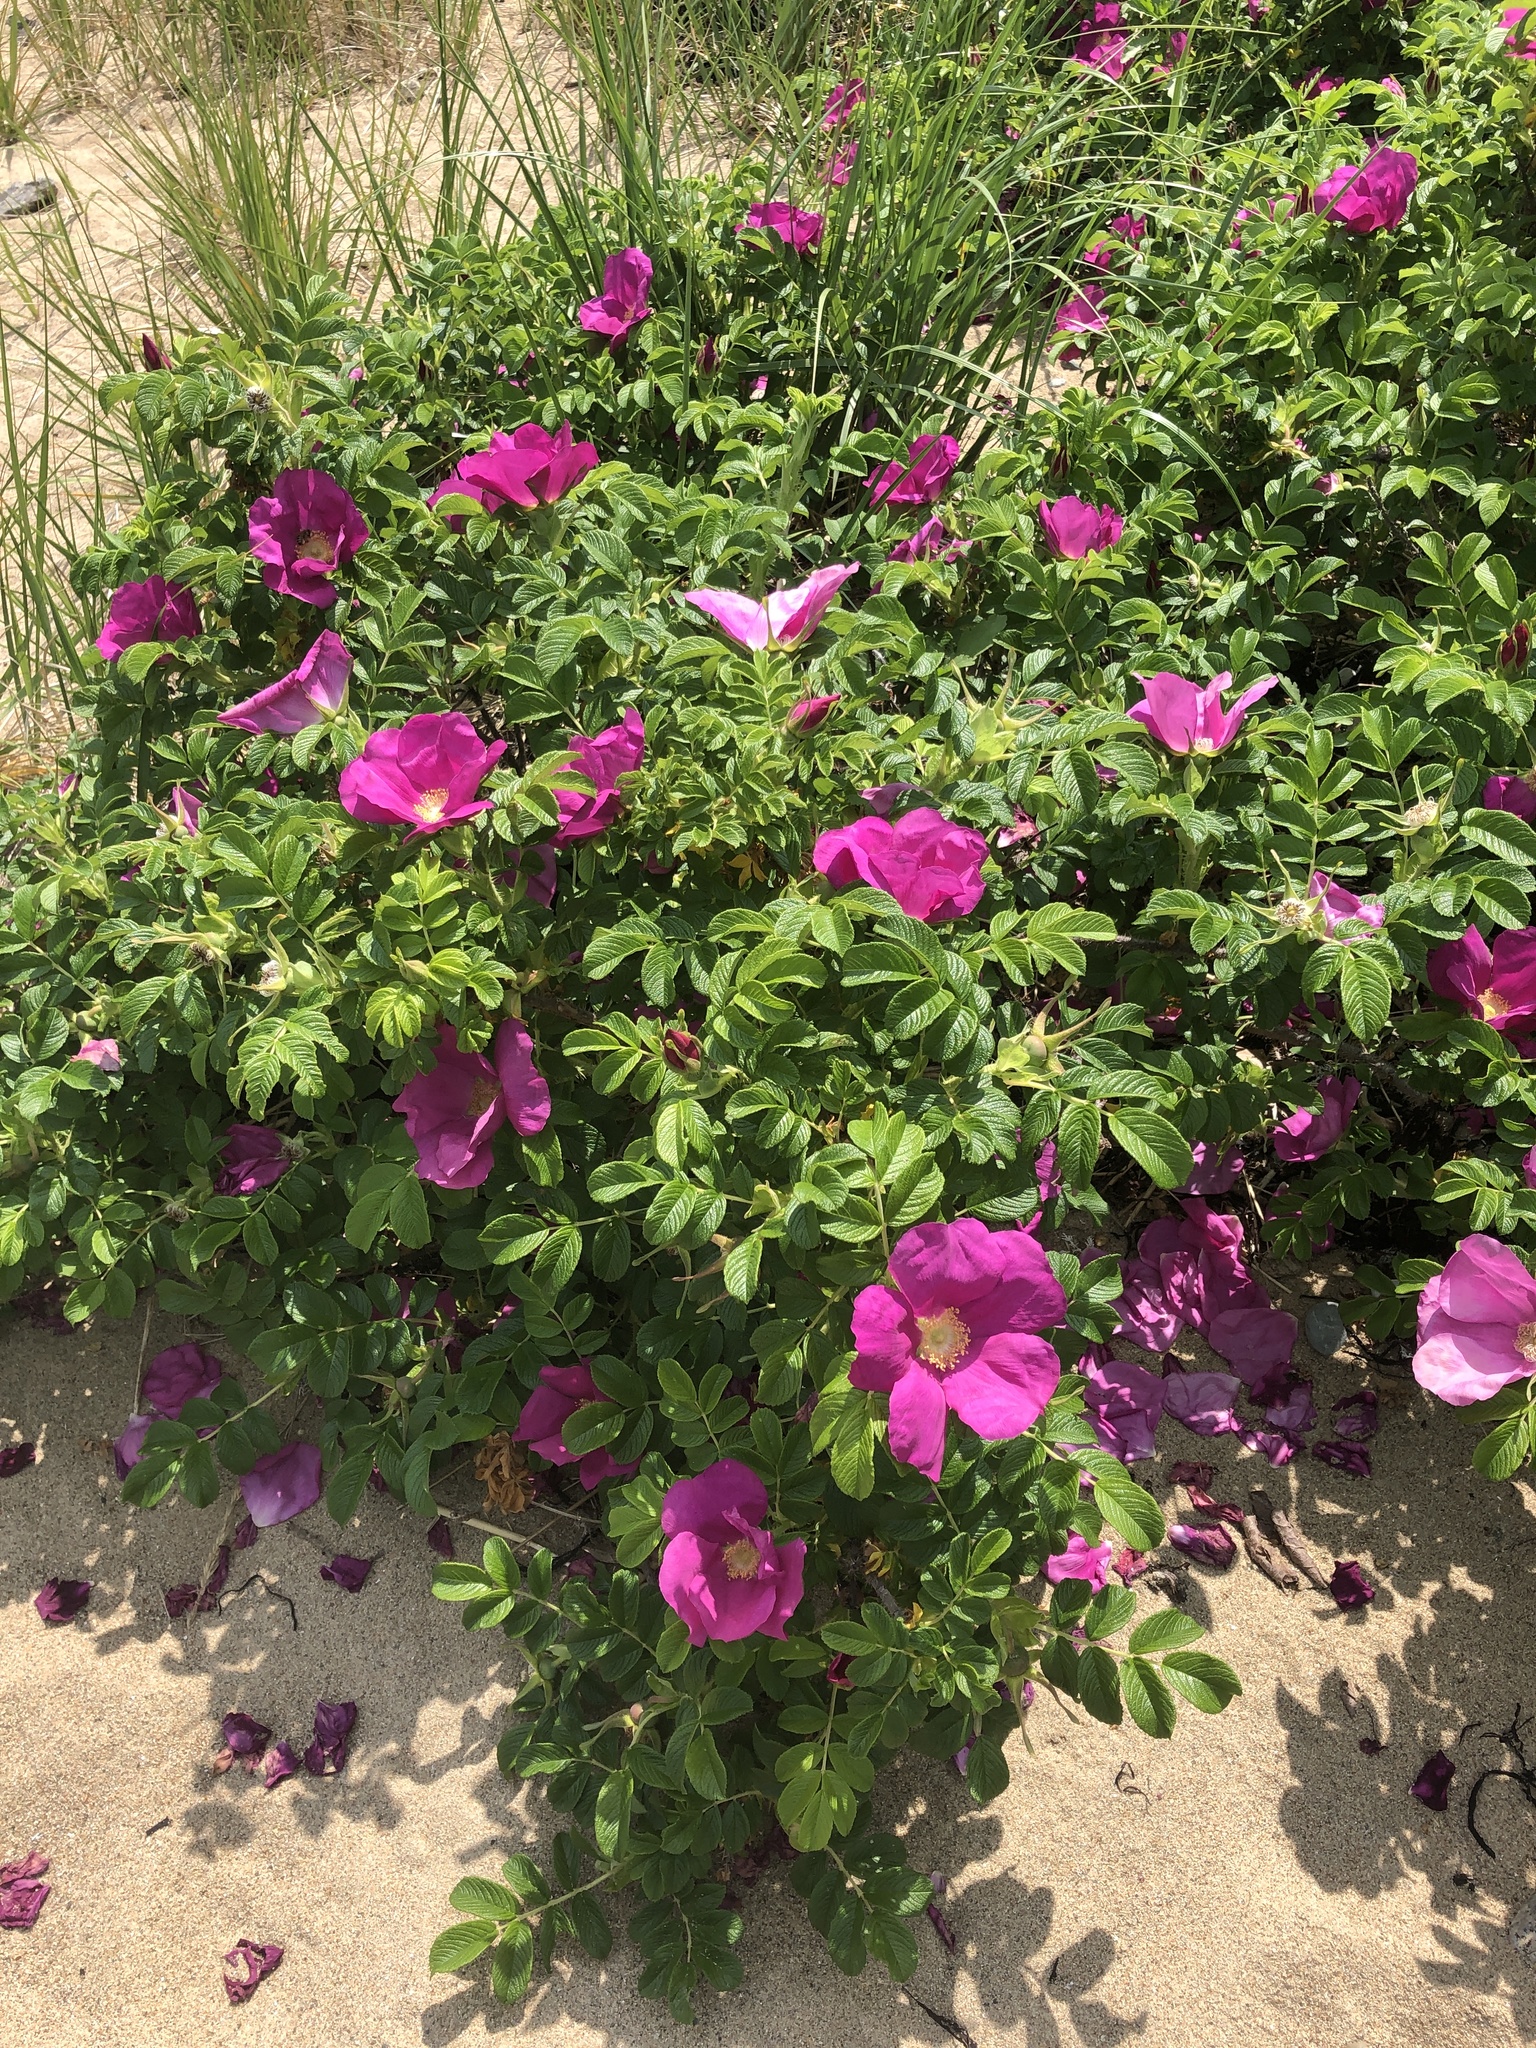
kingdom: Plantae
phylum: Tracheophyta
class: Magnoliopsida
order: Rosales
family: Rosaceae
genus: Rosa
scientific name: Rosa rugosa
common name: Japanese rose
